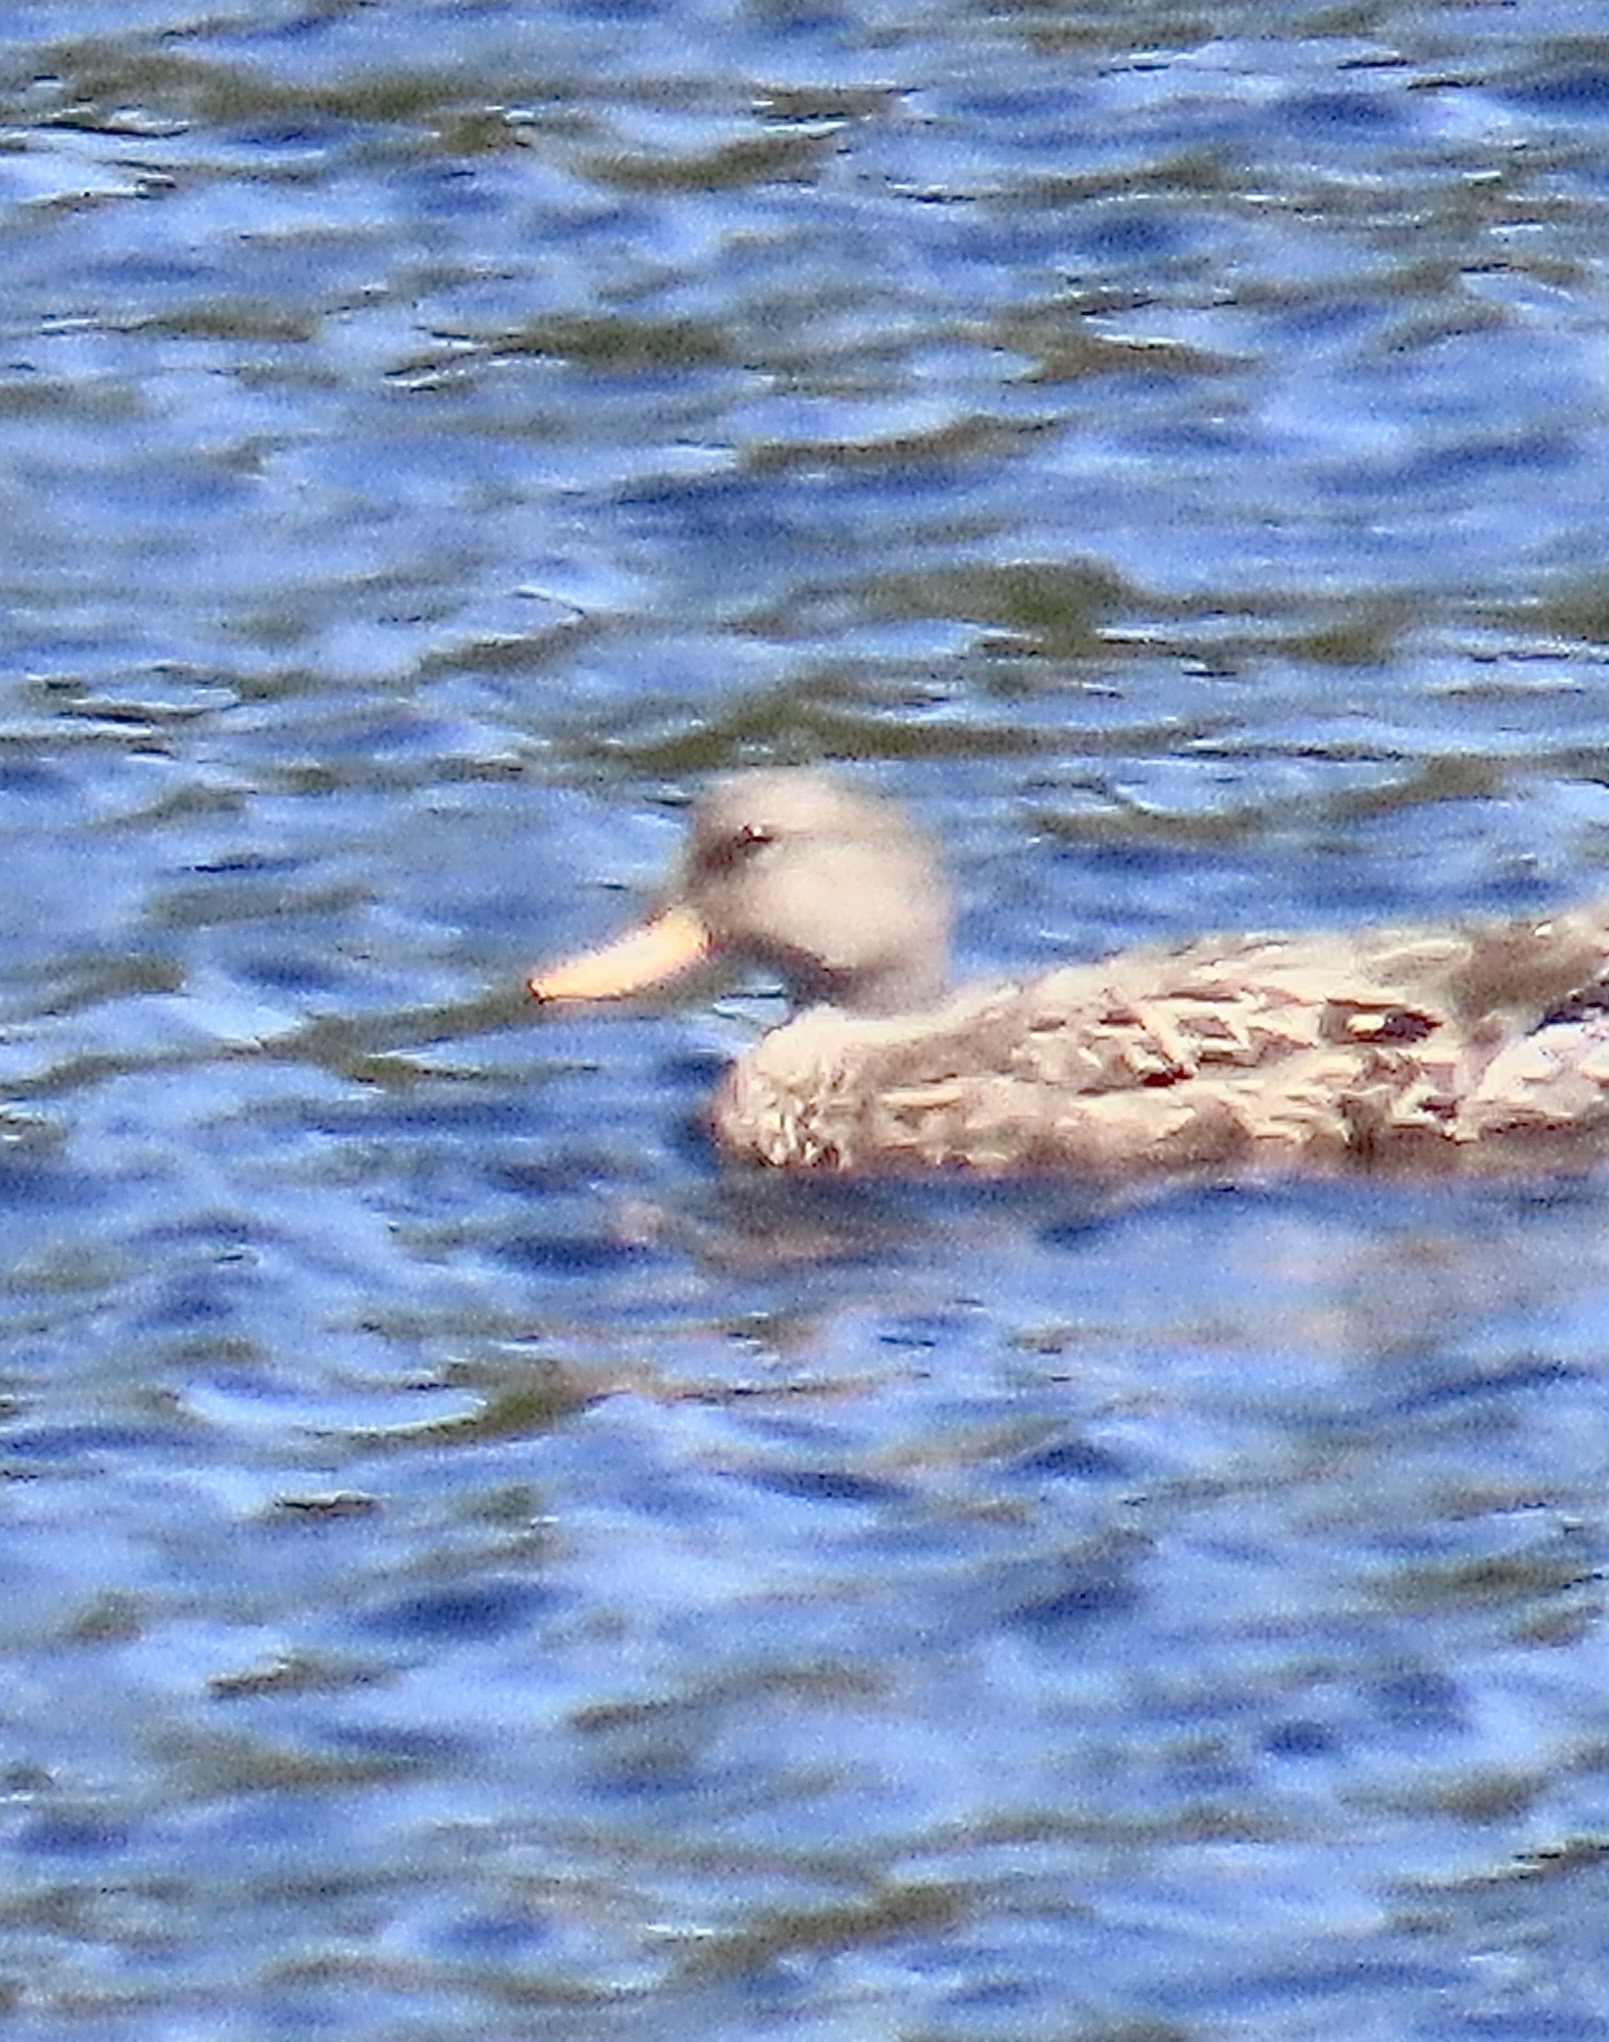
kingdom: Animalia
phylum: Chordata
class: Aves
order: Anseriformes
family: Anatidae
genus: Mareca
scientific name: Mareca strepera
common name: Gadwall
